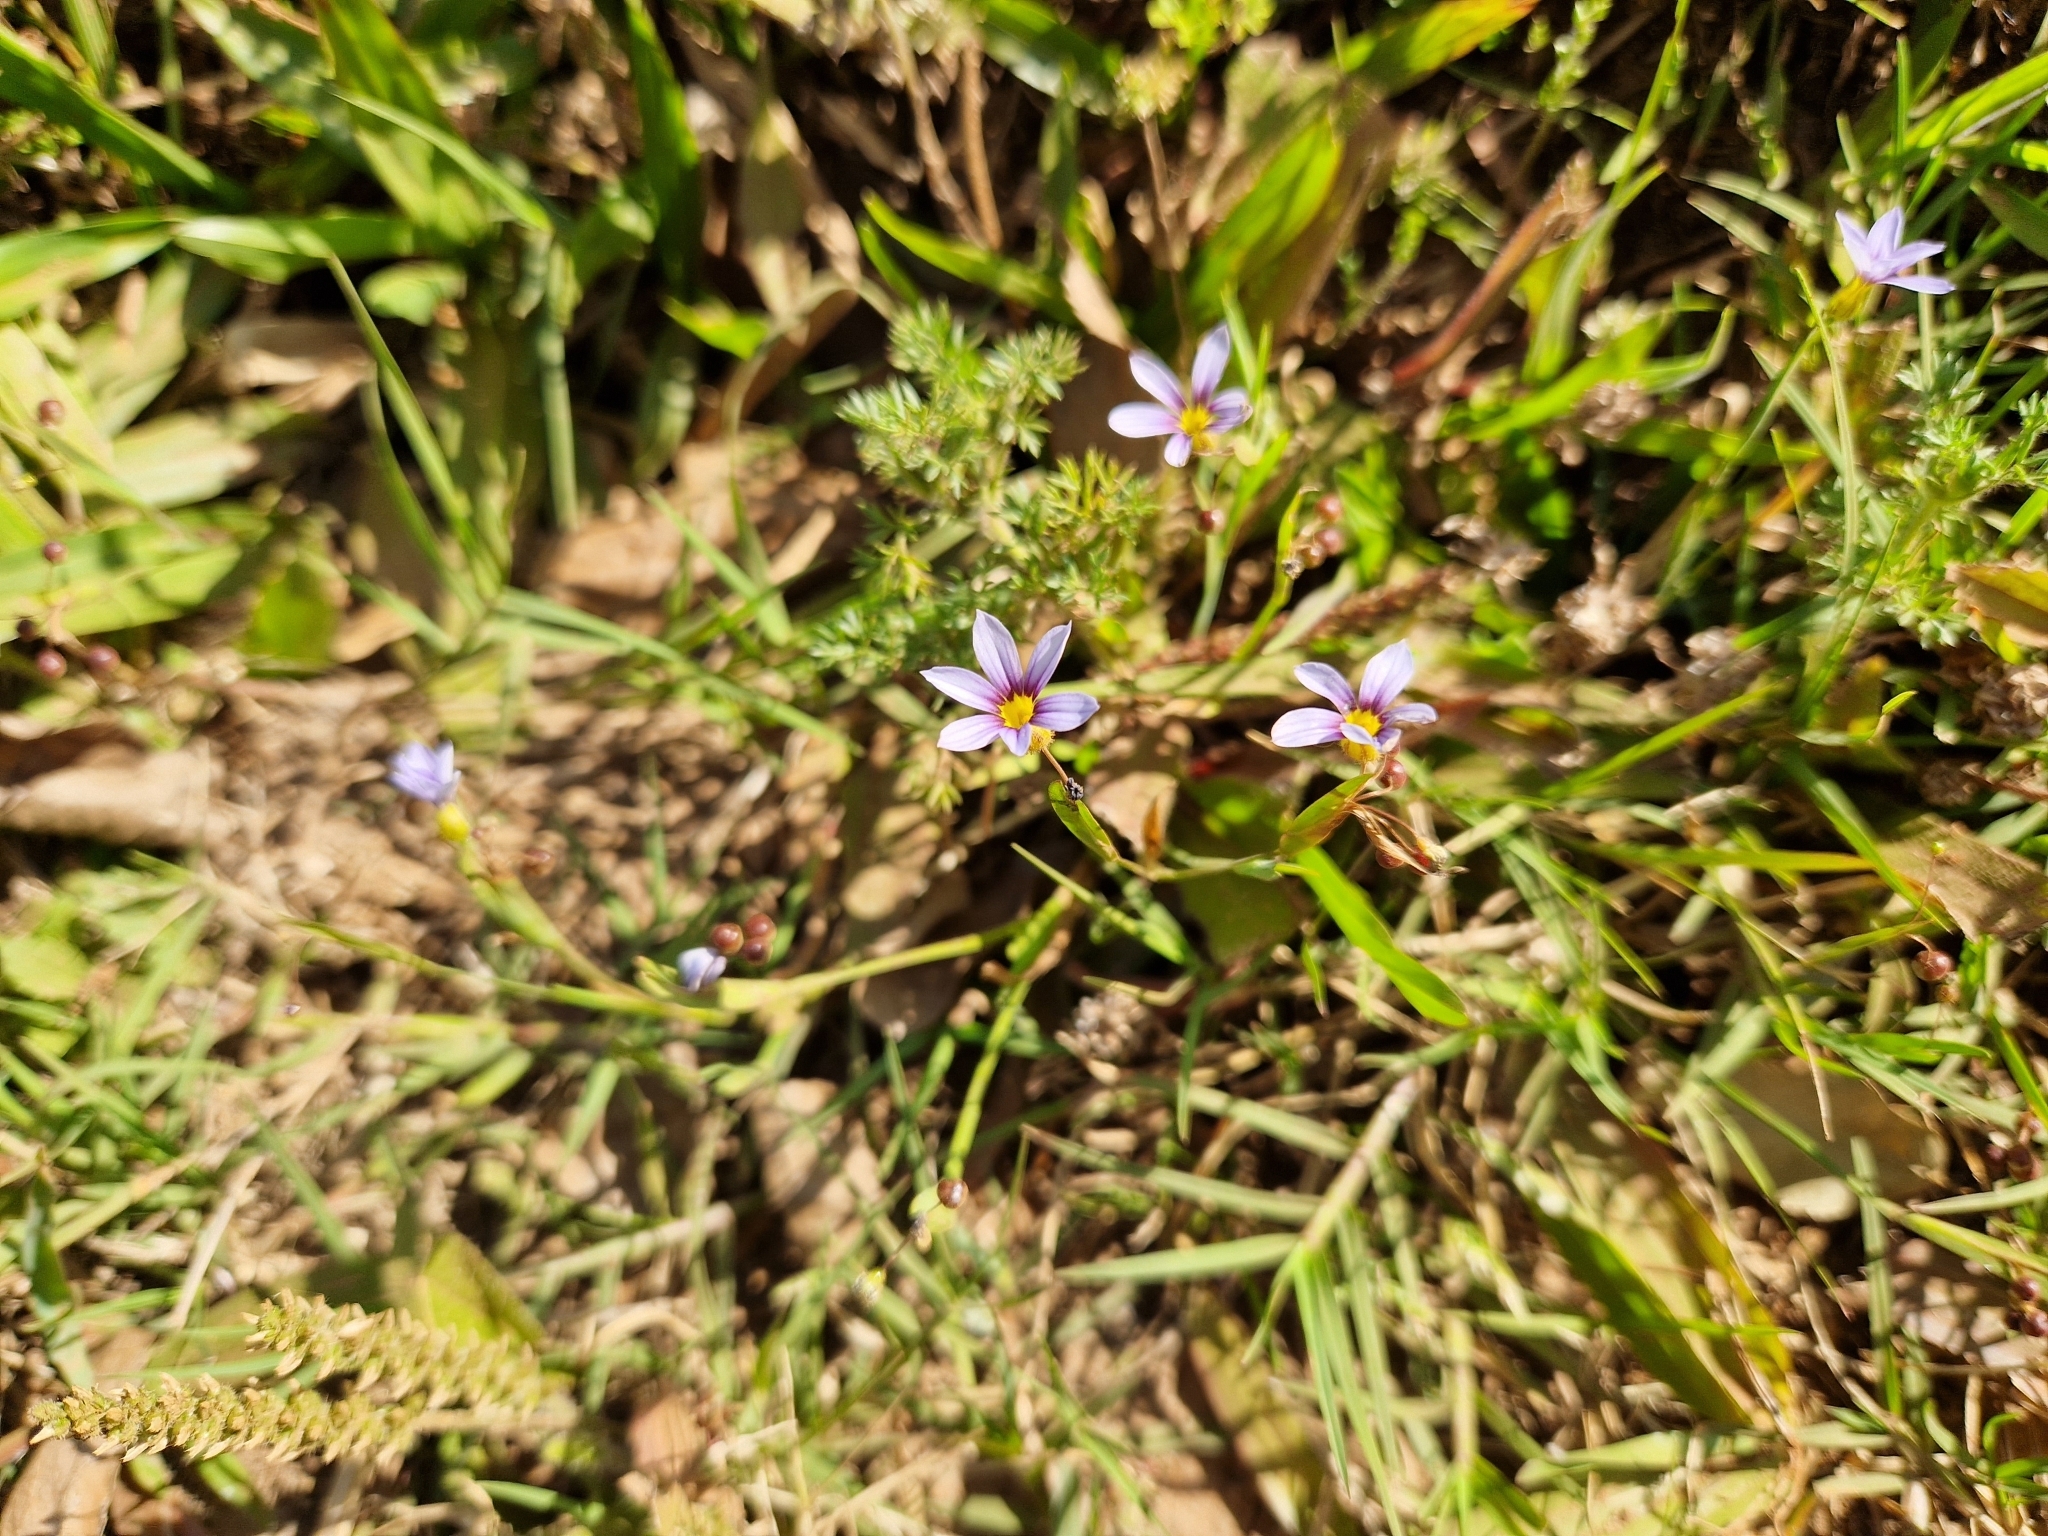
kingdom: Plantae
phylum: Tracheophyta
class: Liliopsida
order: Asparagales
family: Iridaceae
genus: Sisyrinchium
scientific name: Sisyrinchium micranthum
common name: Bermuda pigroot
